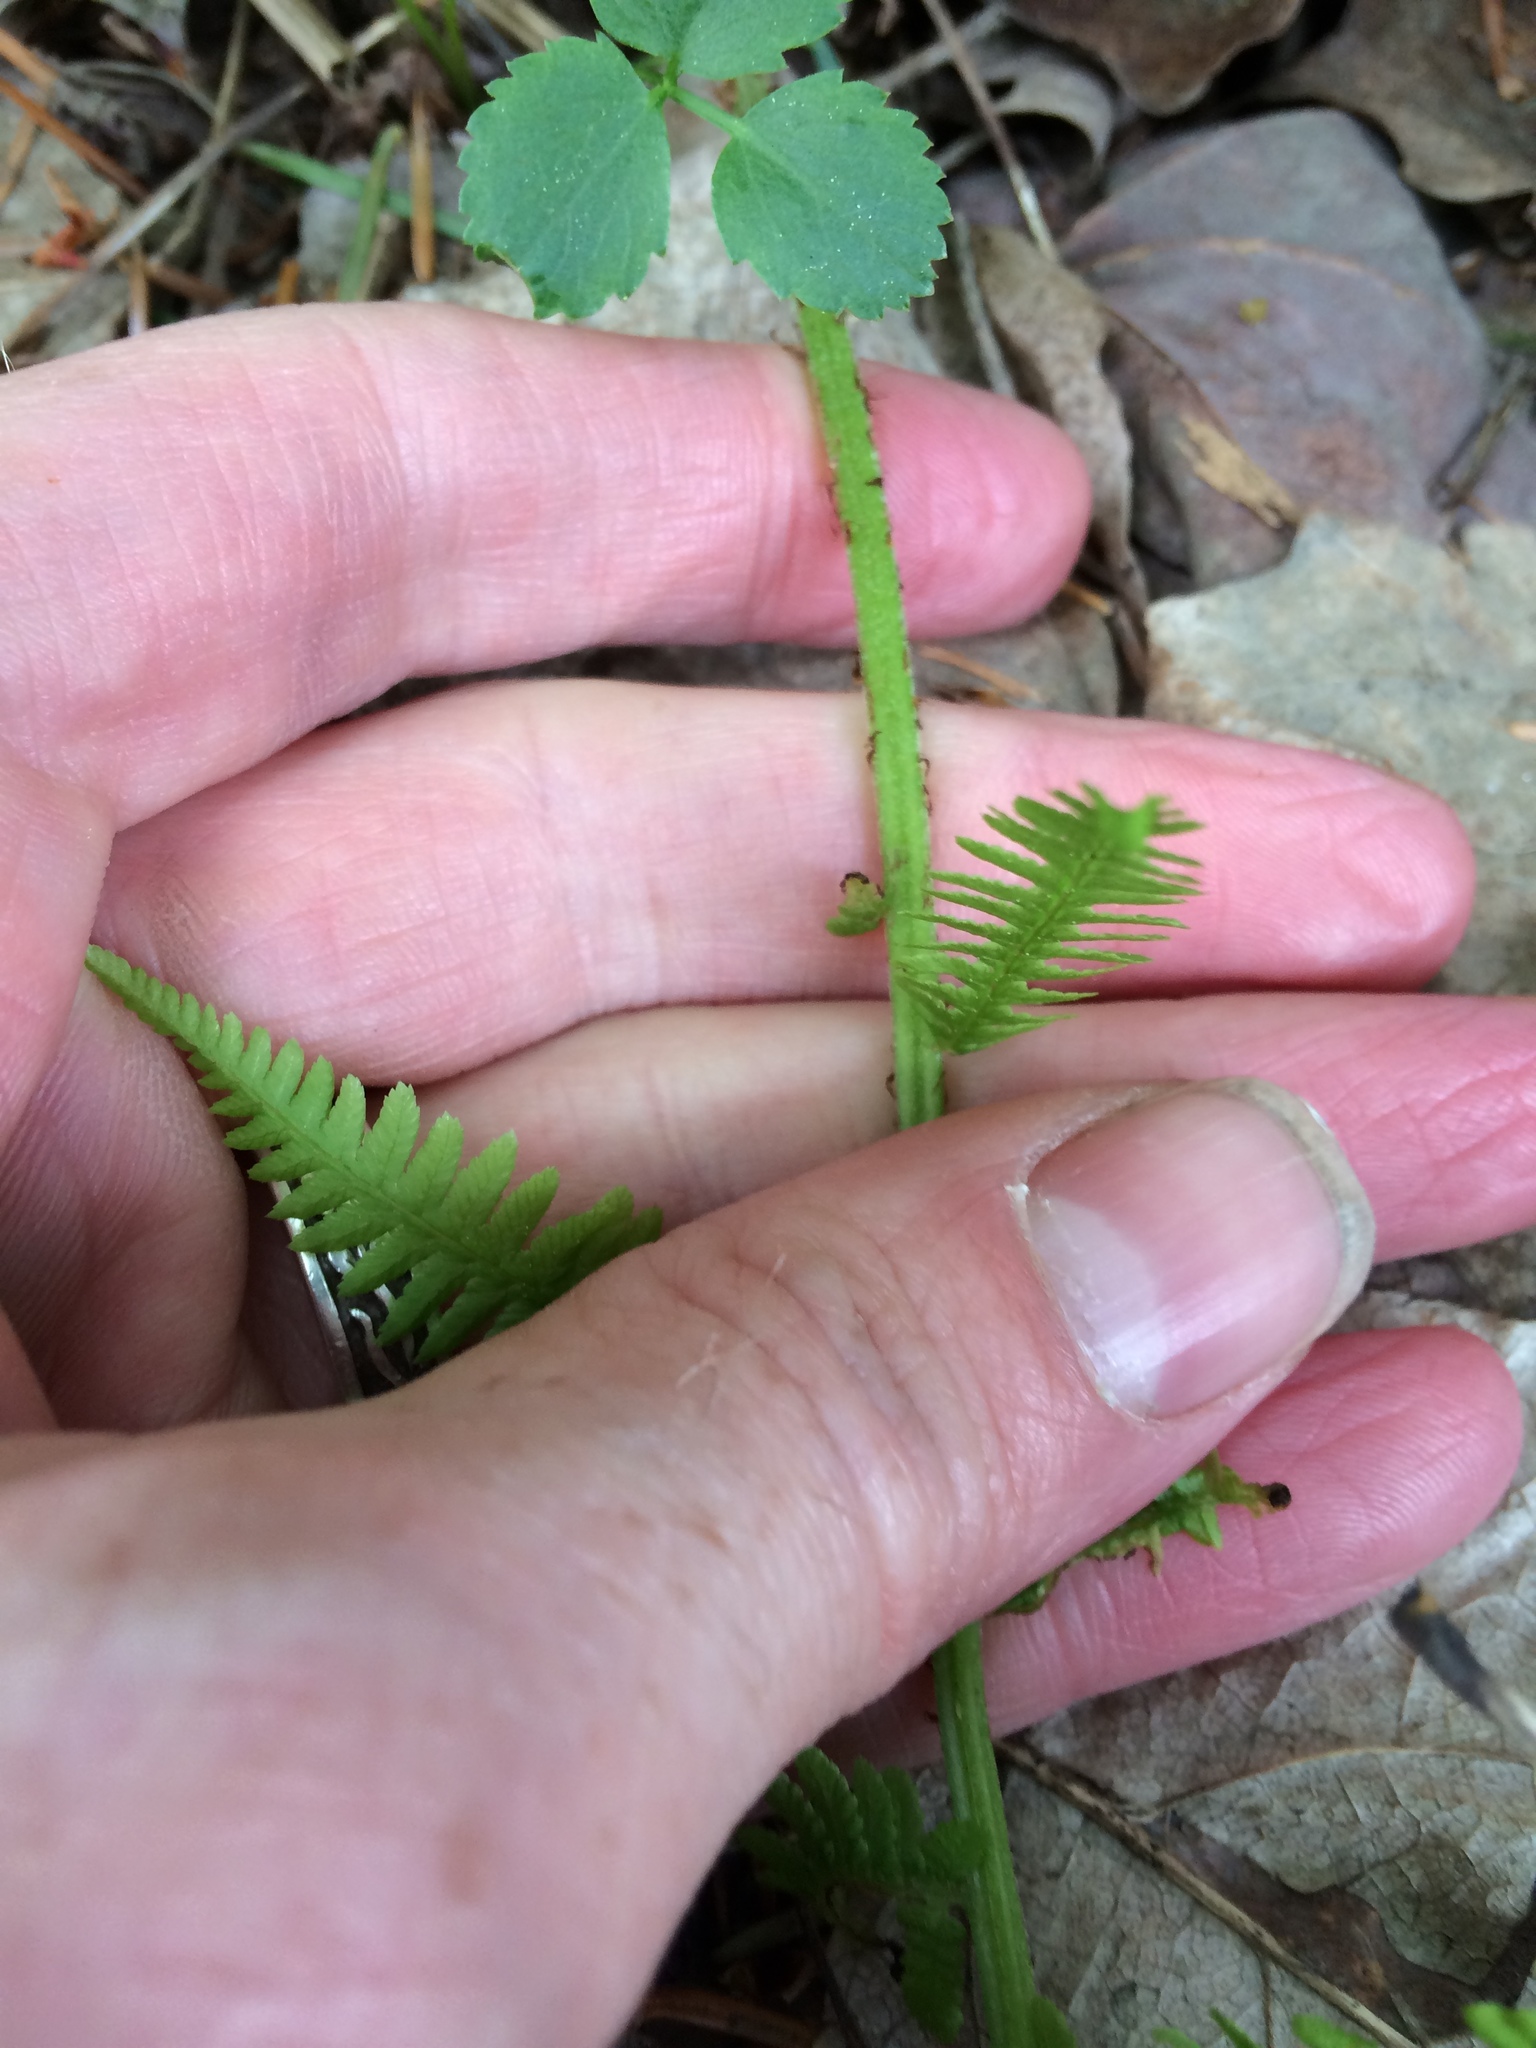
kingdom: Plantae
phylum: Tracheophyta
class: Polypodiopsida
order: Polypodiales
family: Athyriaceae
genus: Athyrium
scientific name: Athyrium angustum
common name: Northern lady fern
